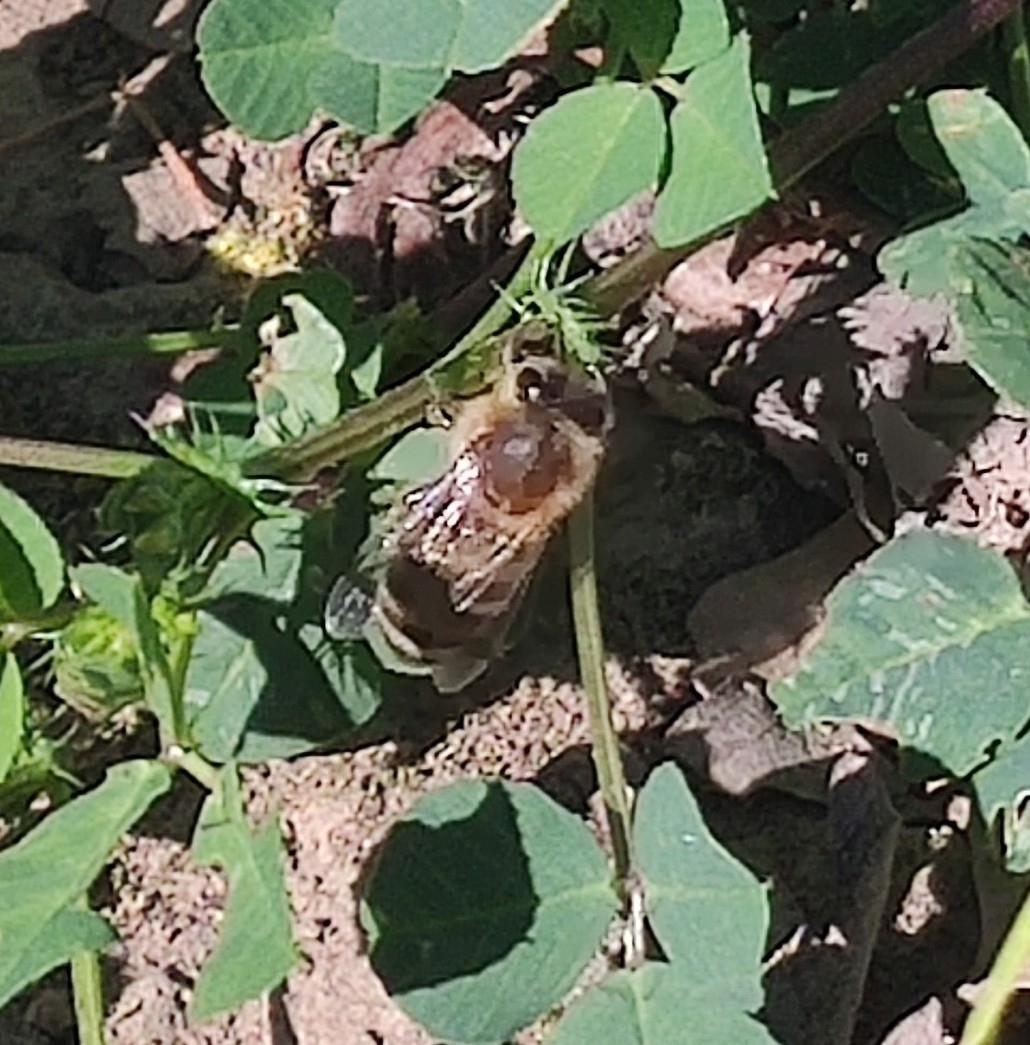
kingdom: Animalia
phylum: Arthropoda
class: Insecta
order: Hymenoptera
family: Apidae
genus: Apis
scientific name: Apis mellifera
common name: Honey bee
